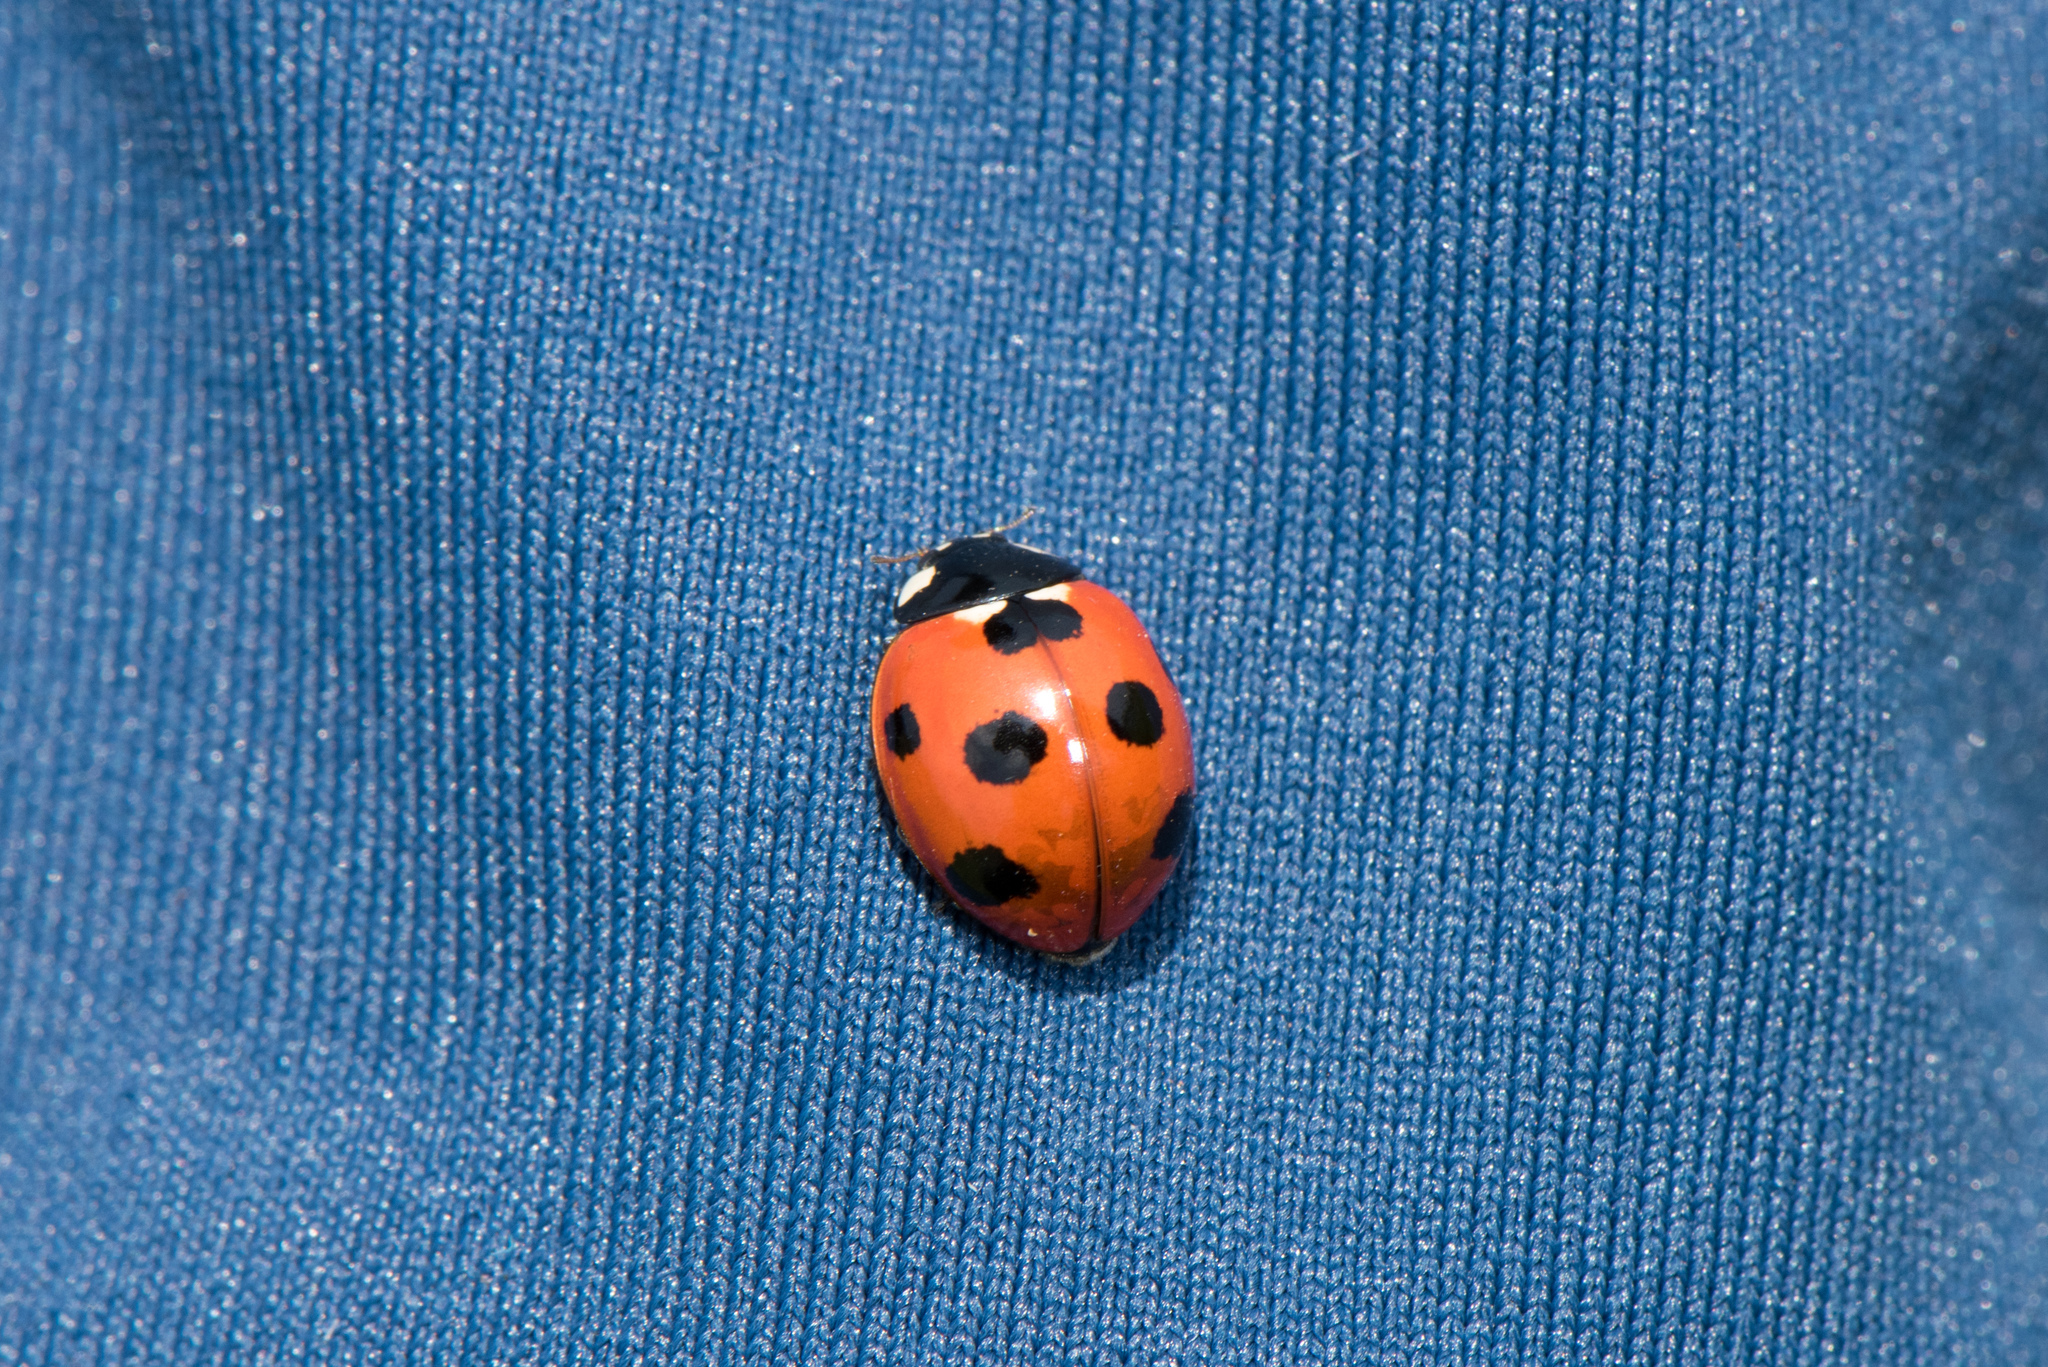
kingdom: Animalia
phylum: Arthropoda
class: Insecta
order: Coleoptera
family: Coccinellidae
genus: Coccinella
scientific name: Coccinella septempunctata
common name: Sevenspotted lady beetle
